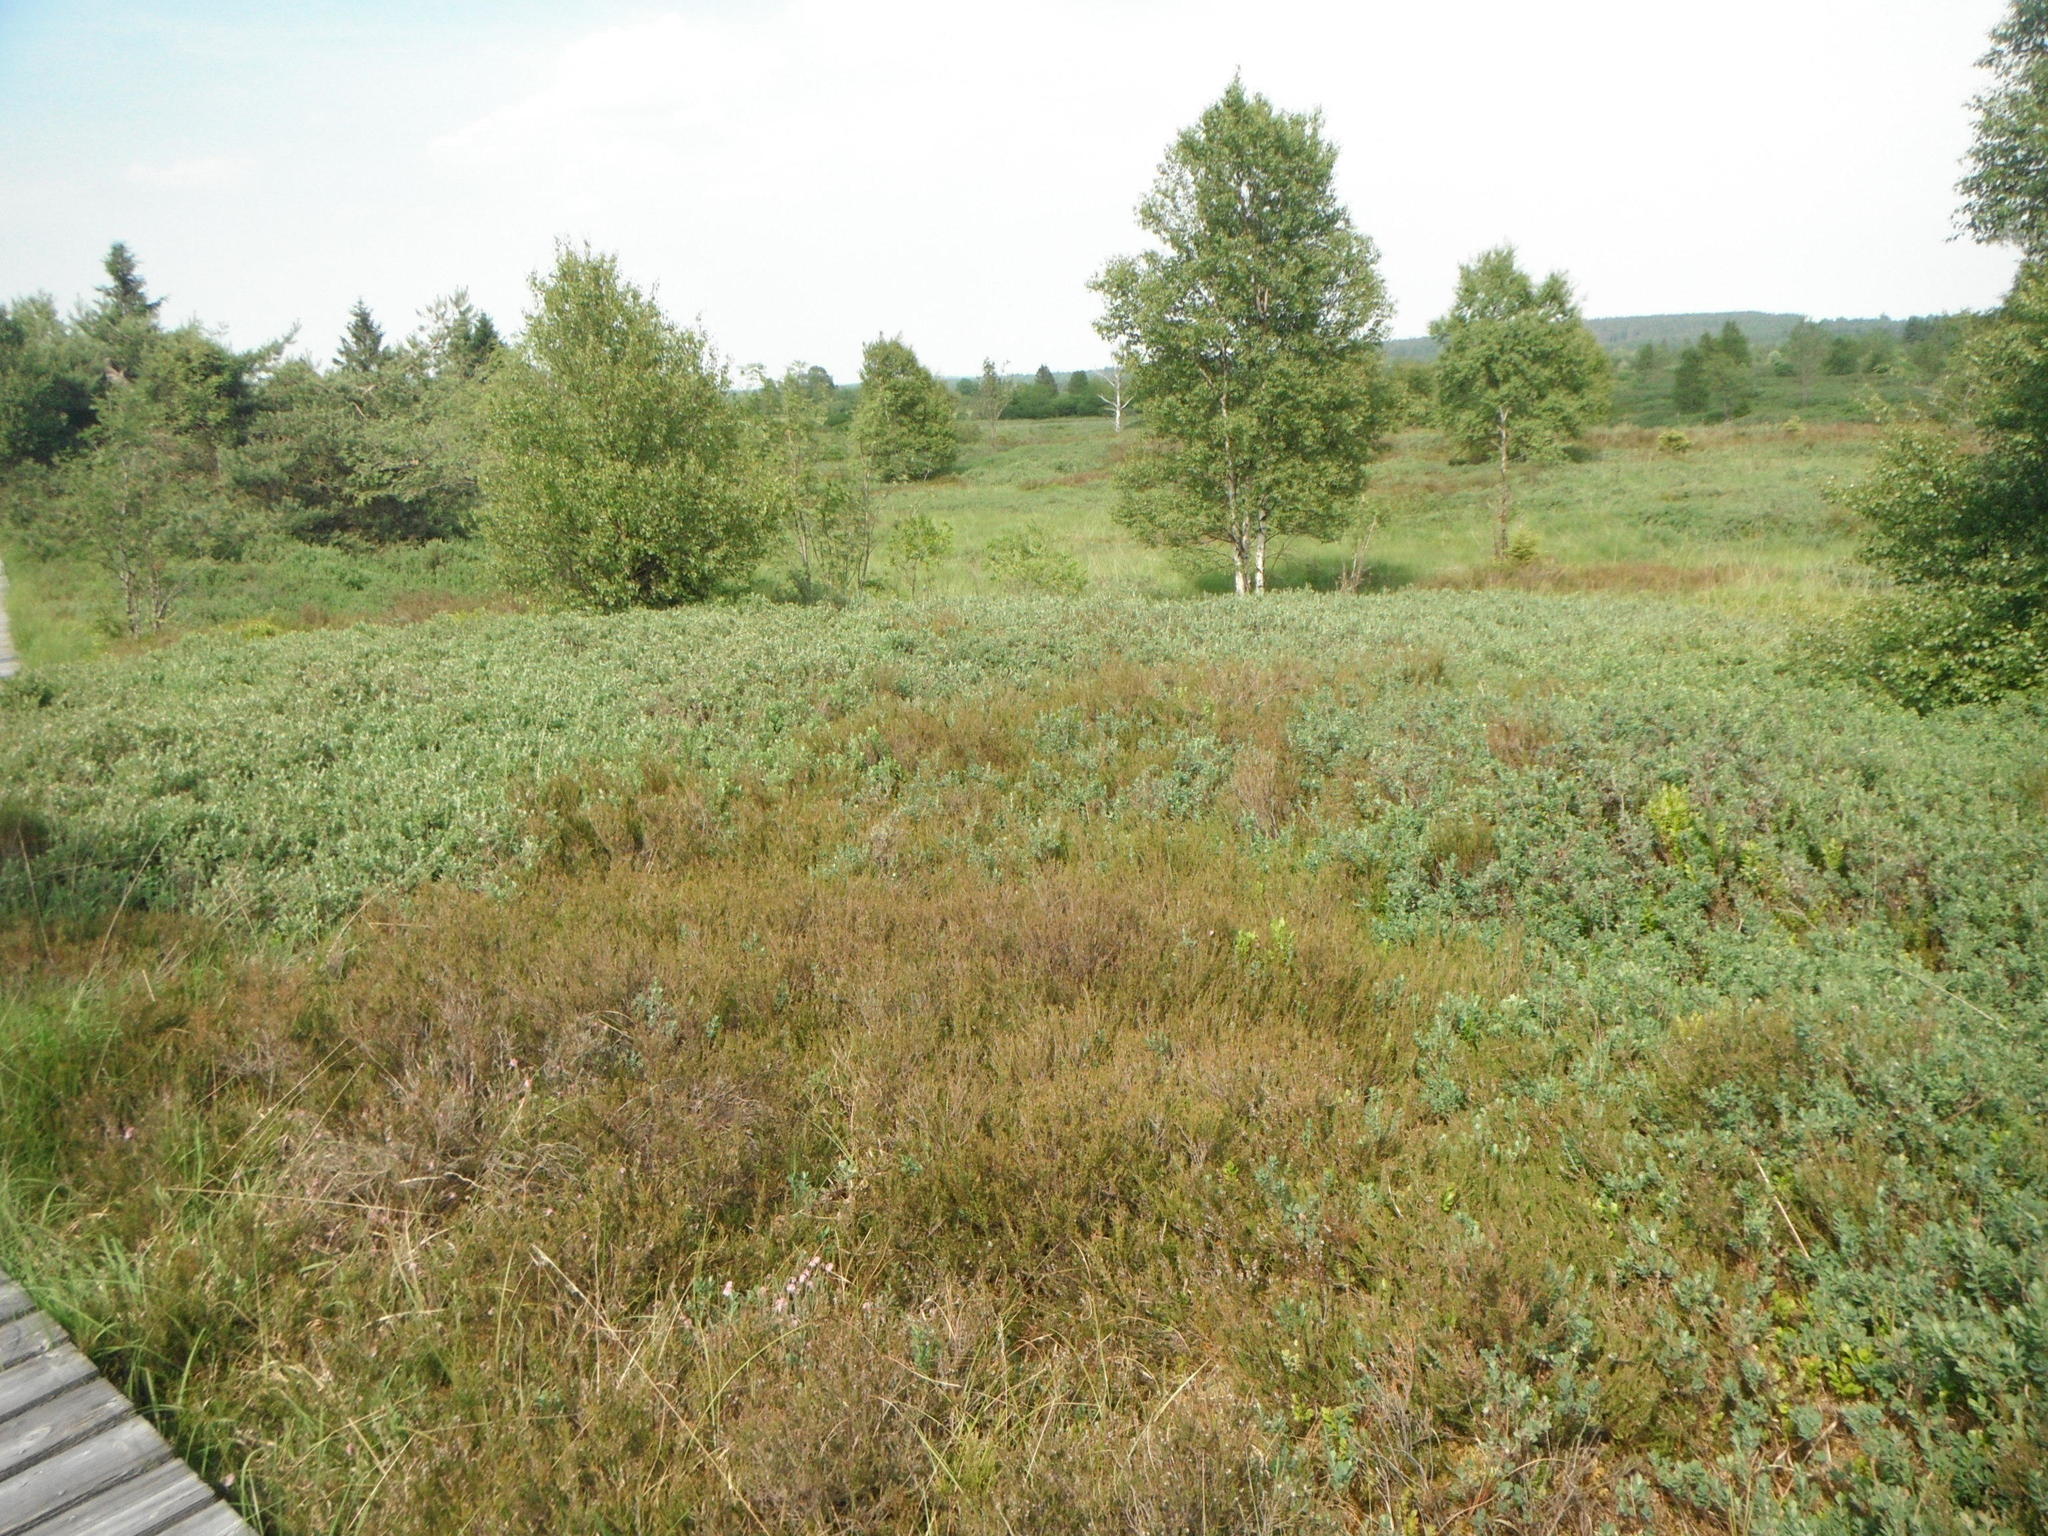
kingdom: Plantae
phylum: Tracheophyta
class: Magnoliopsida
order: Ericales
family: Ericaceae
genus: Calluna
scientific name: Calluna vulgaris
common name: Heather
